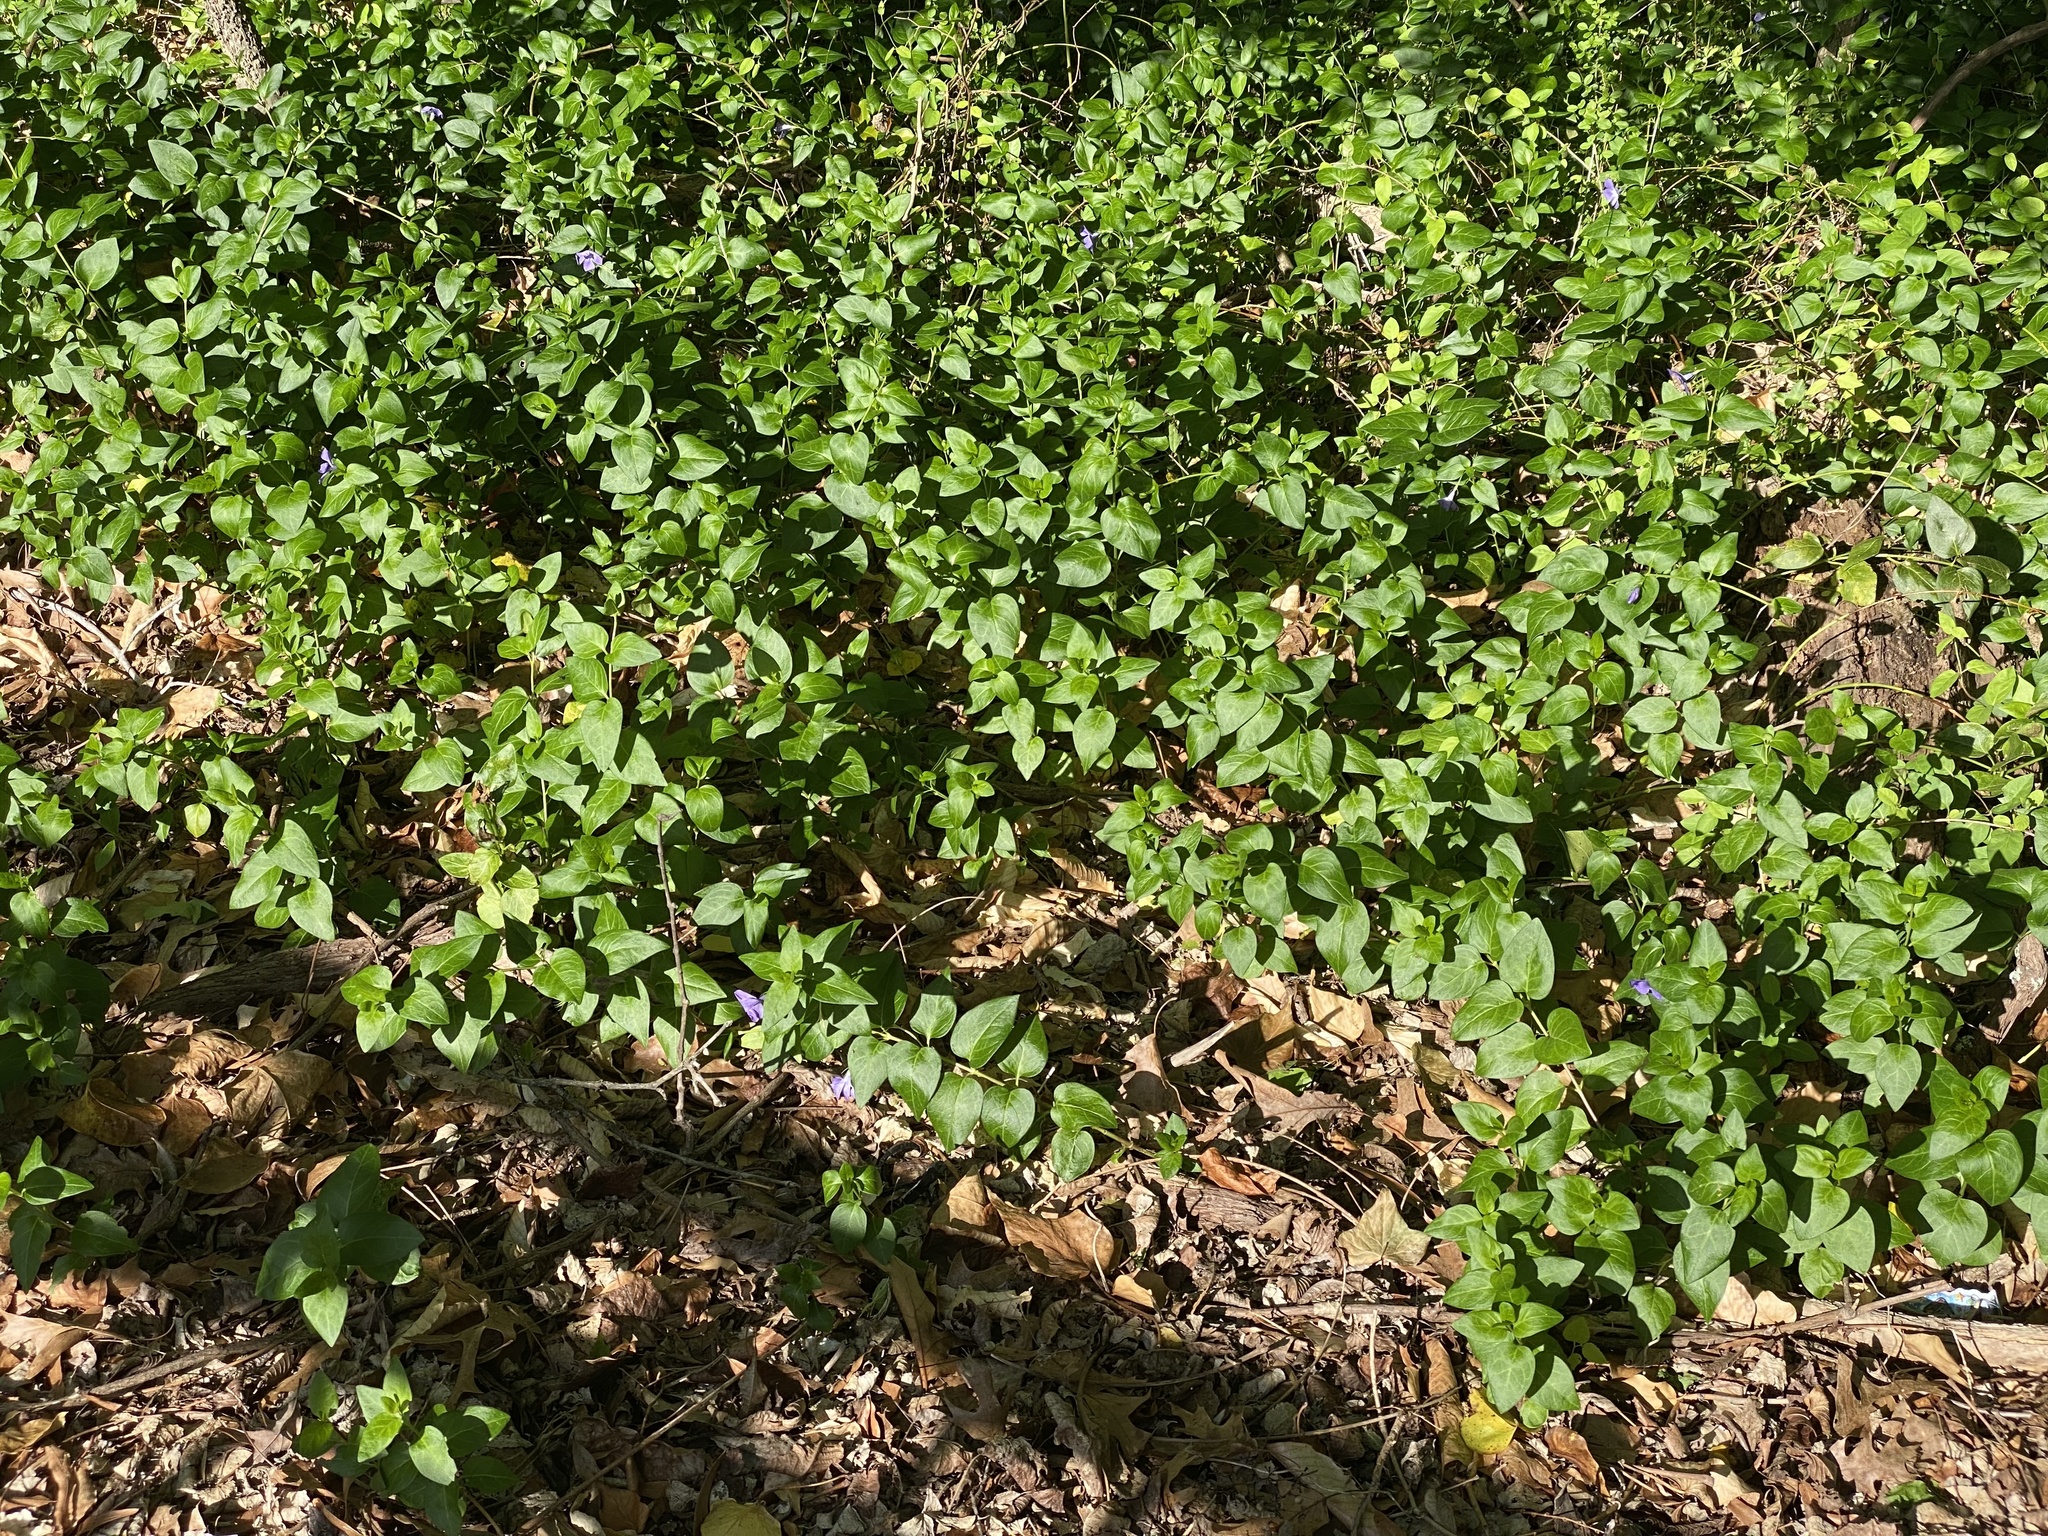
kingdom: Plantae
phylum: Tracheophyta
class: Magnoliopsida
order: Gentianales
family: Apocynaceae
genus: Vinca
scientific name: Vinca major
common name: Greater periwinkle
